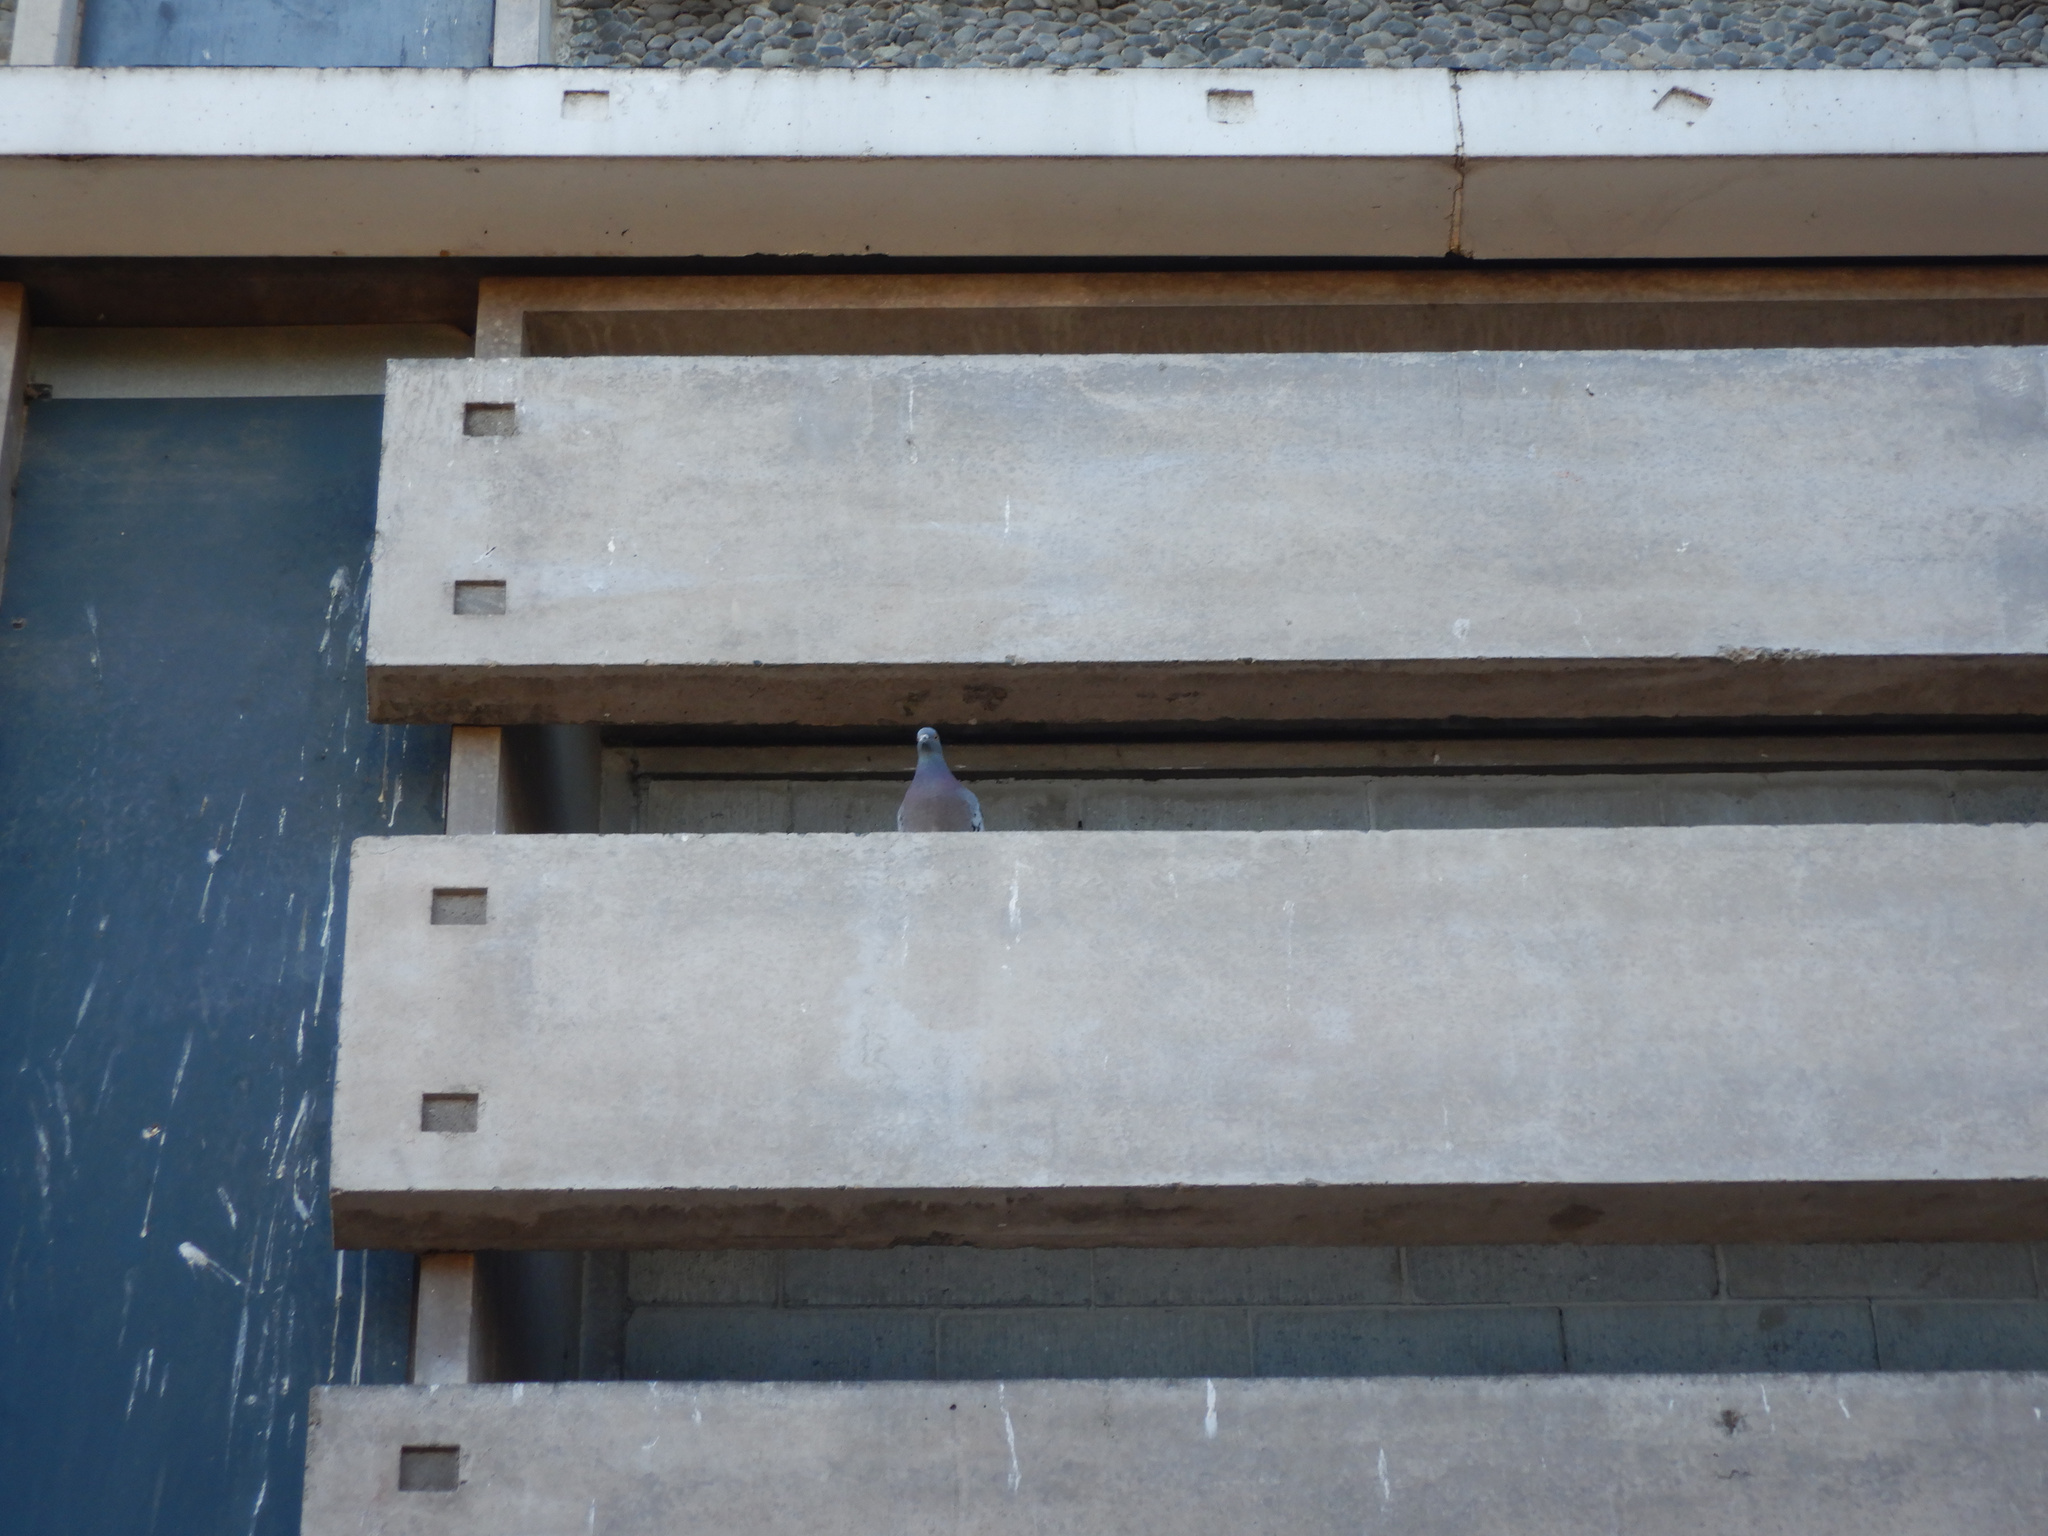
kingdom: Animalia
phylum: Chordata
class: Aves
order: Columbiformes
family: Columbidae
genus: Columba
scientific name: Columba livia
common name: Rock pigeon
